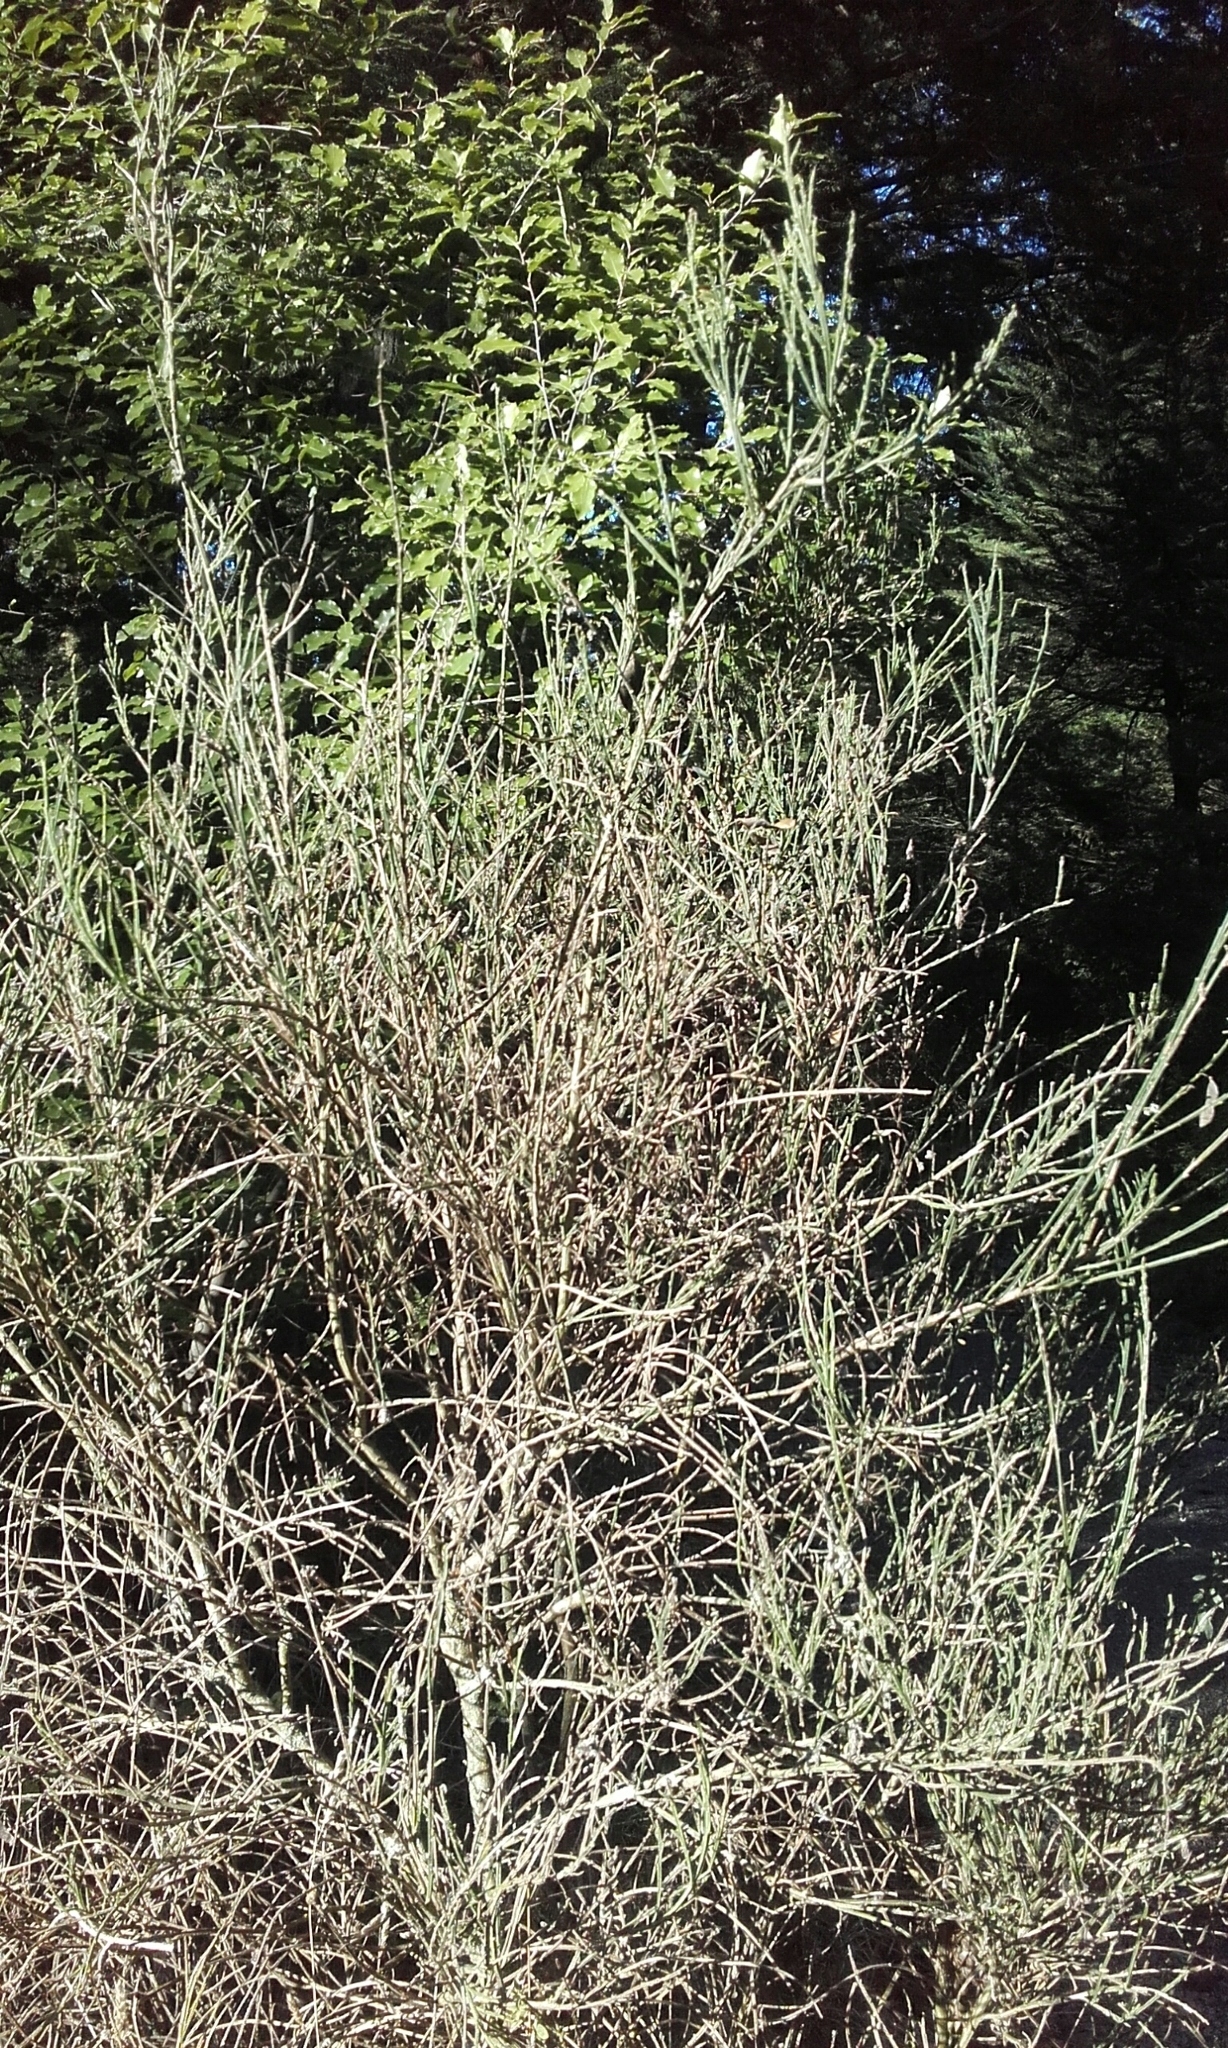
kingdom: Plantae
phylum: Tracheophyta
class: Magnoliopsida
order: Fabales
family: Fabaceae
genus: Cytisus
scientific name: Cytisus scoparius
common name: Scotch broom
